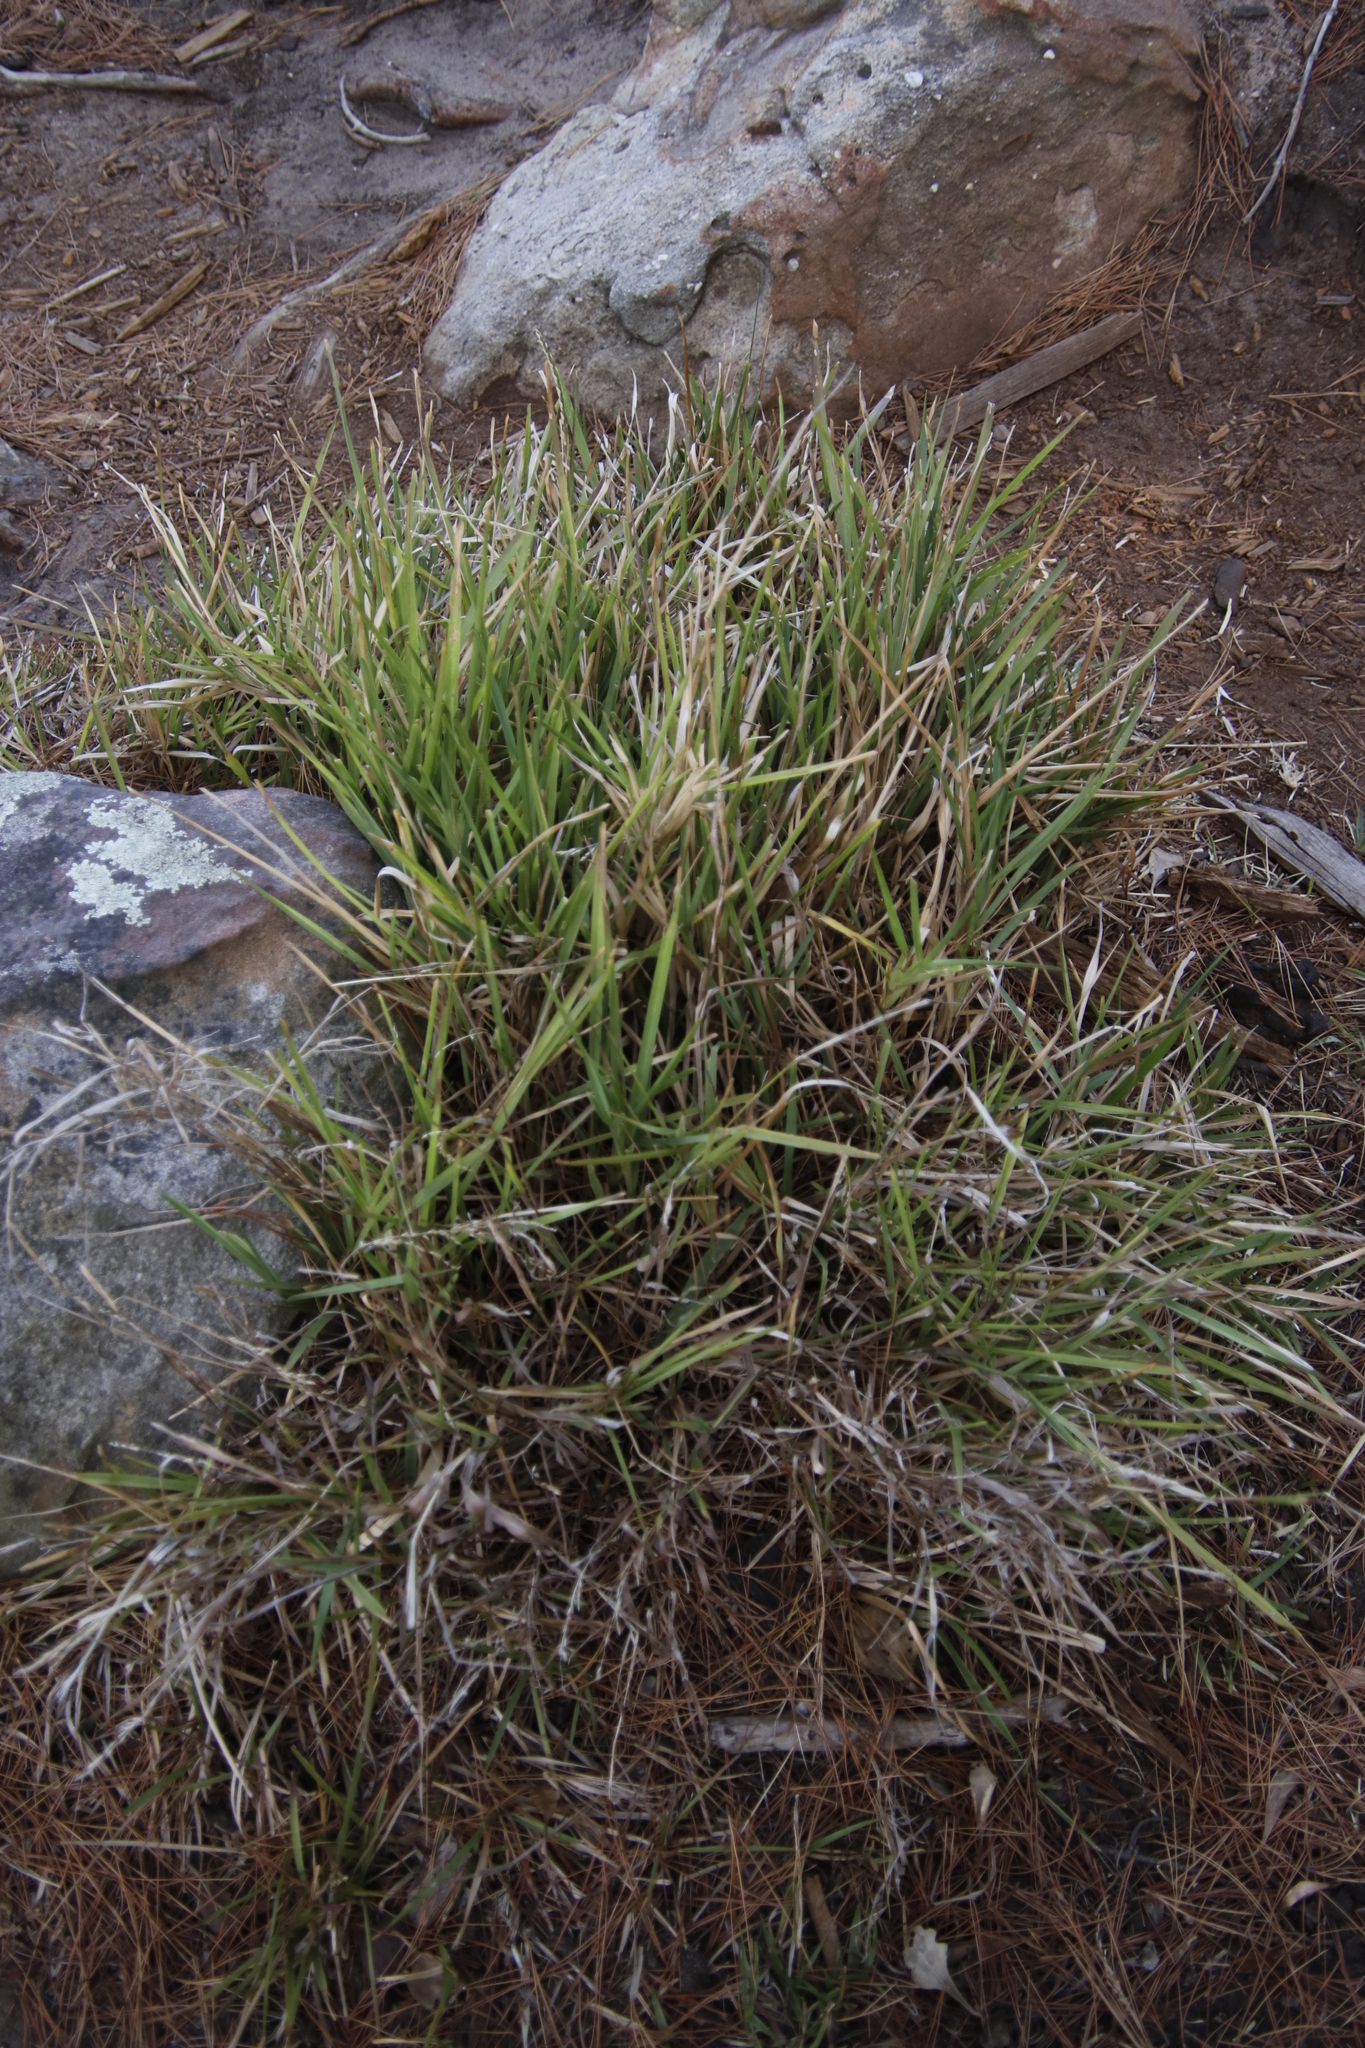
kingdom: Plantae
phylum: Tracheophyta
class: Liliopsida
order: Poales
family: Poaceae
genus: Stenotaphrum
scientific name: Stenotaphrum secundatum
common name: St. augustine grass
